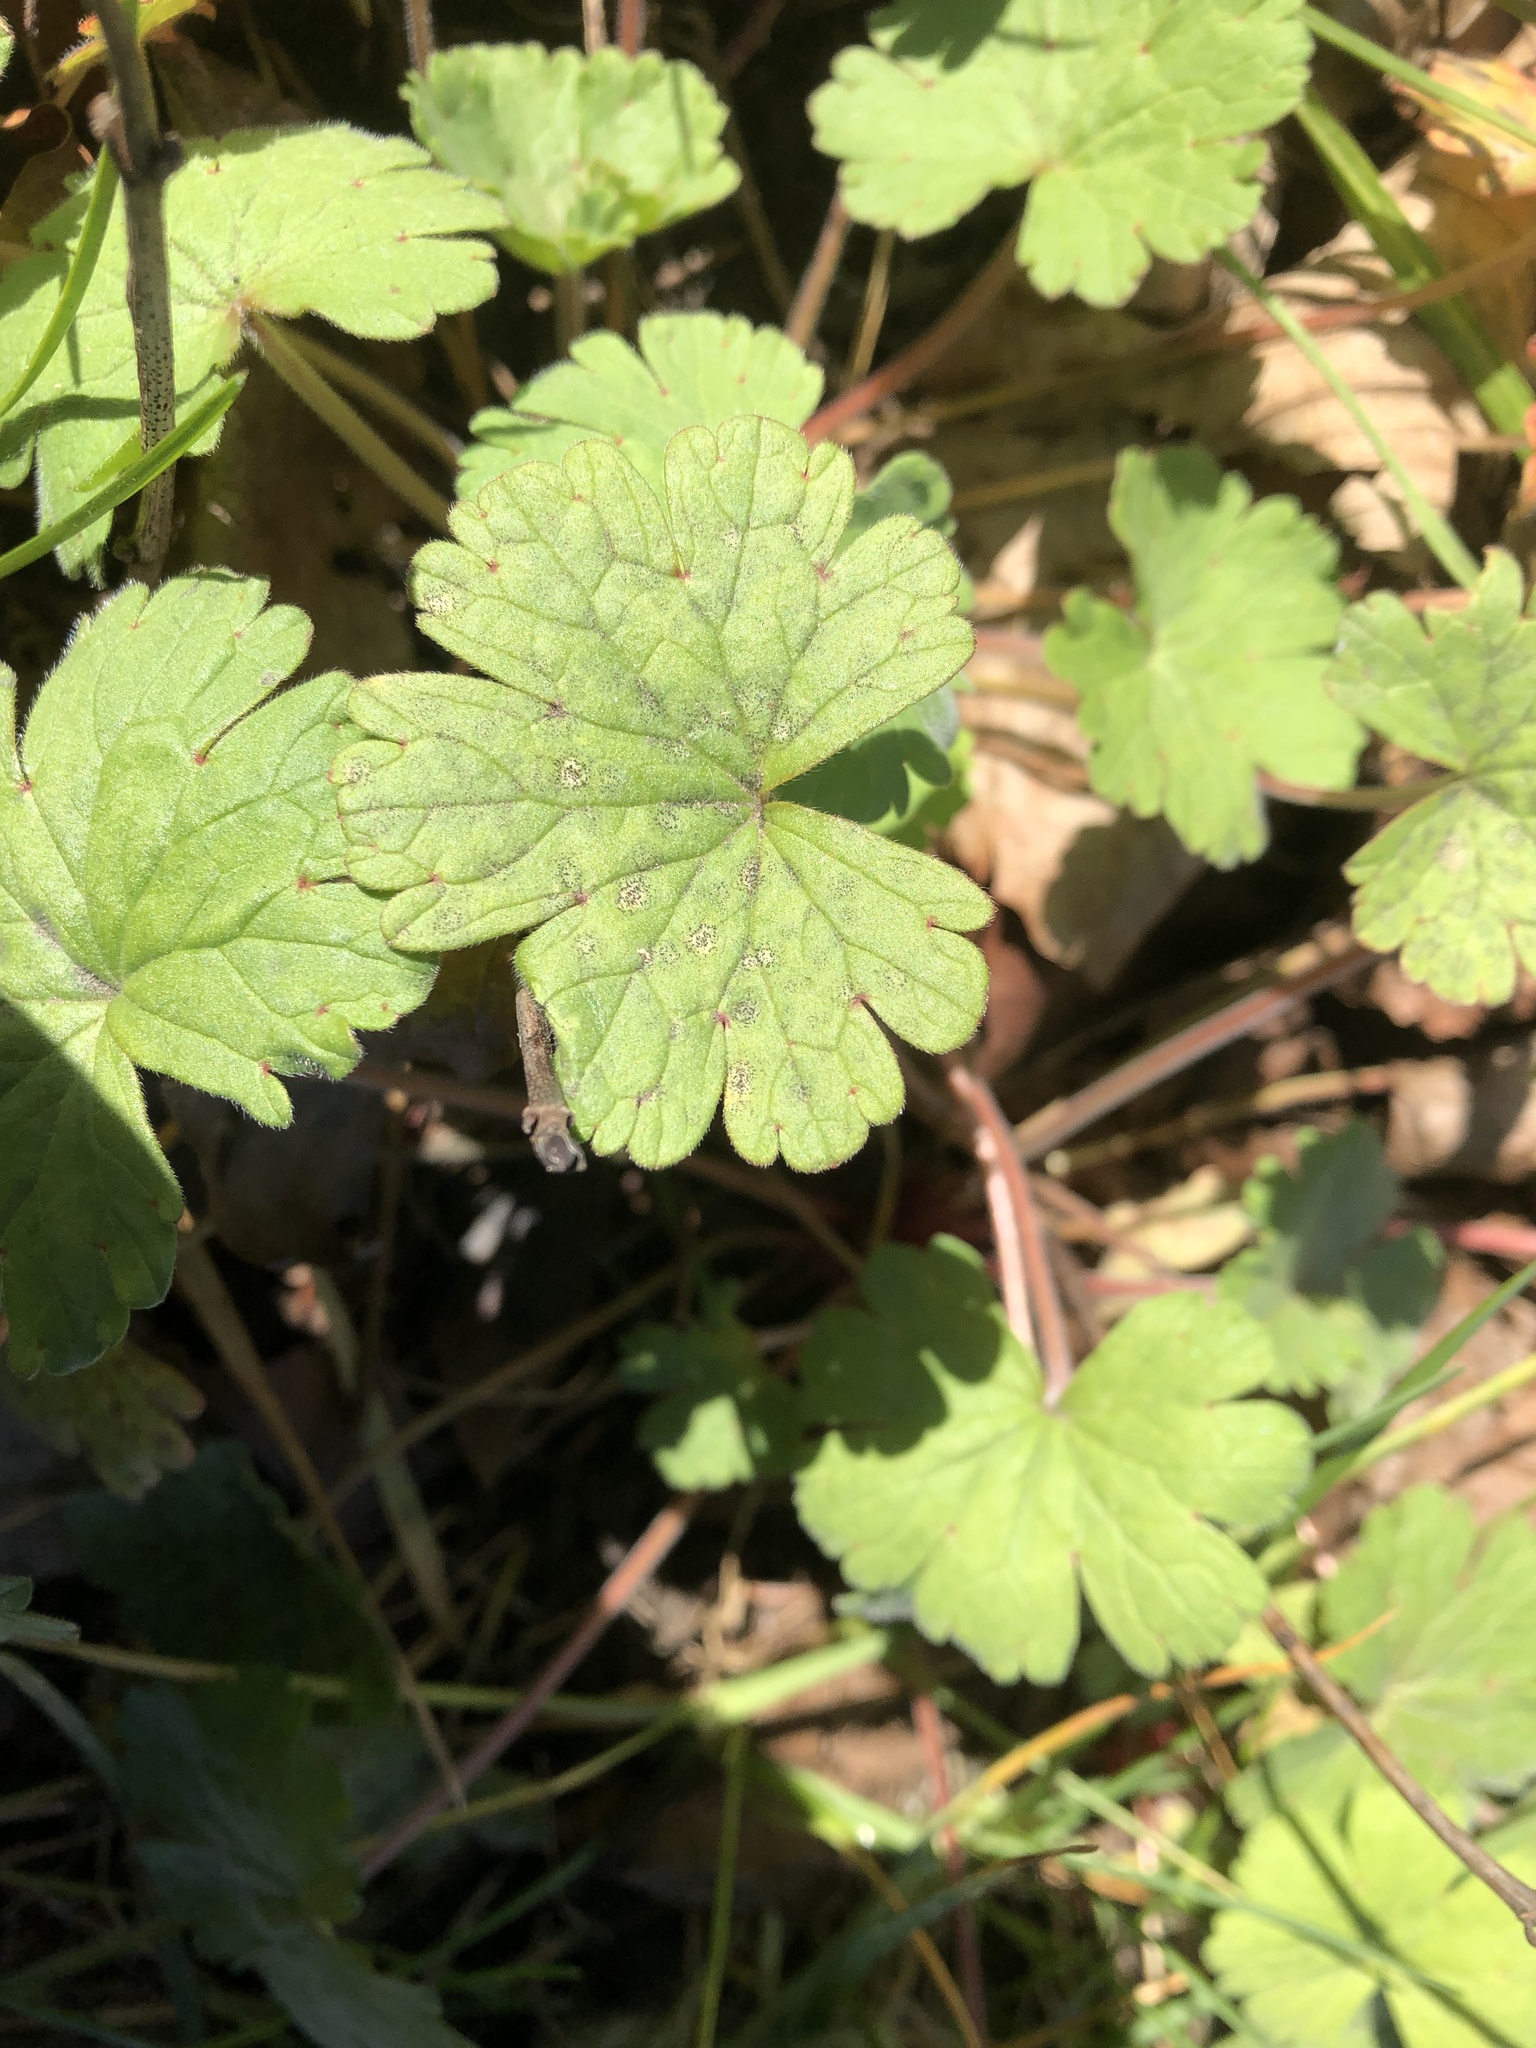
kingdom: Plantae
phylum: Tracheophyta
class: Magnoliopsida
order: Geraniales
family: Geraniaceae
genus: Geranium
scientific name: Geranium rotundifolium
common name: Round-leaved crane's-bill
